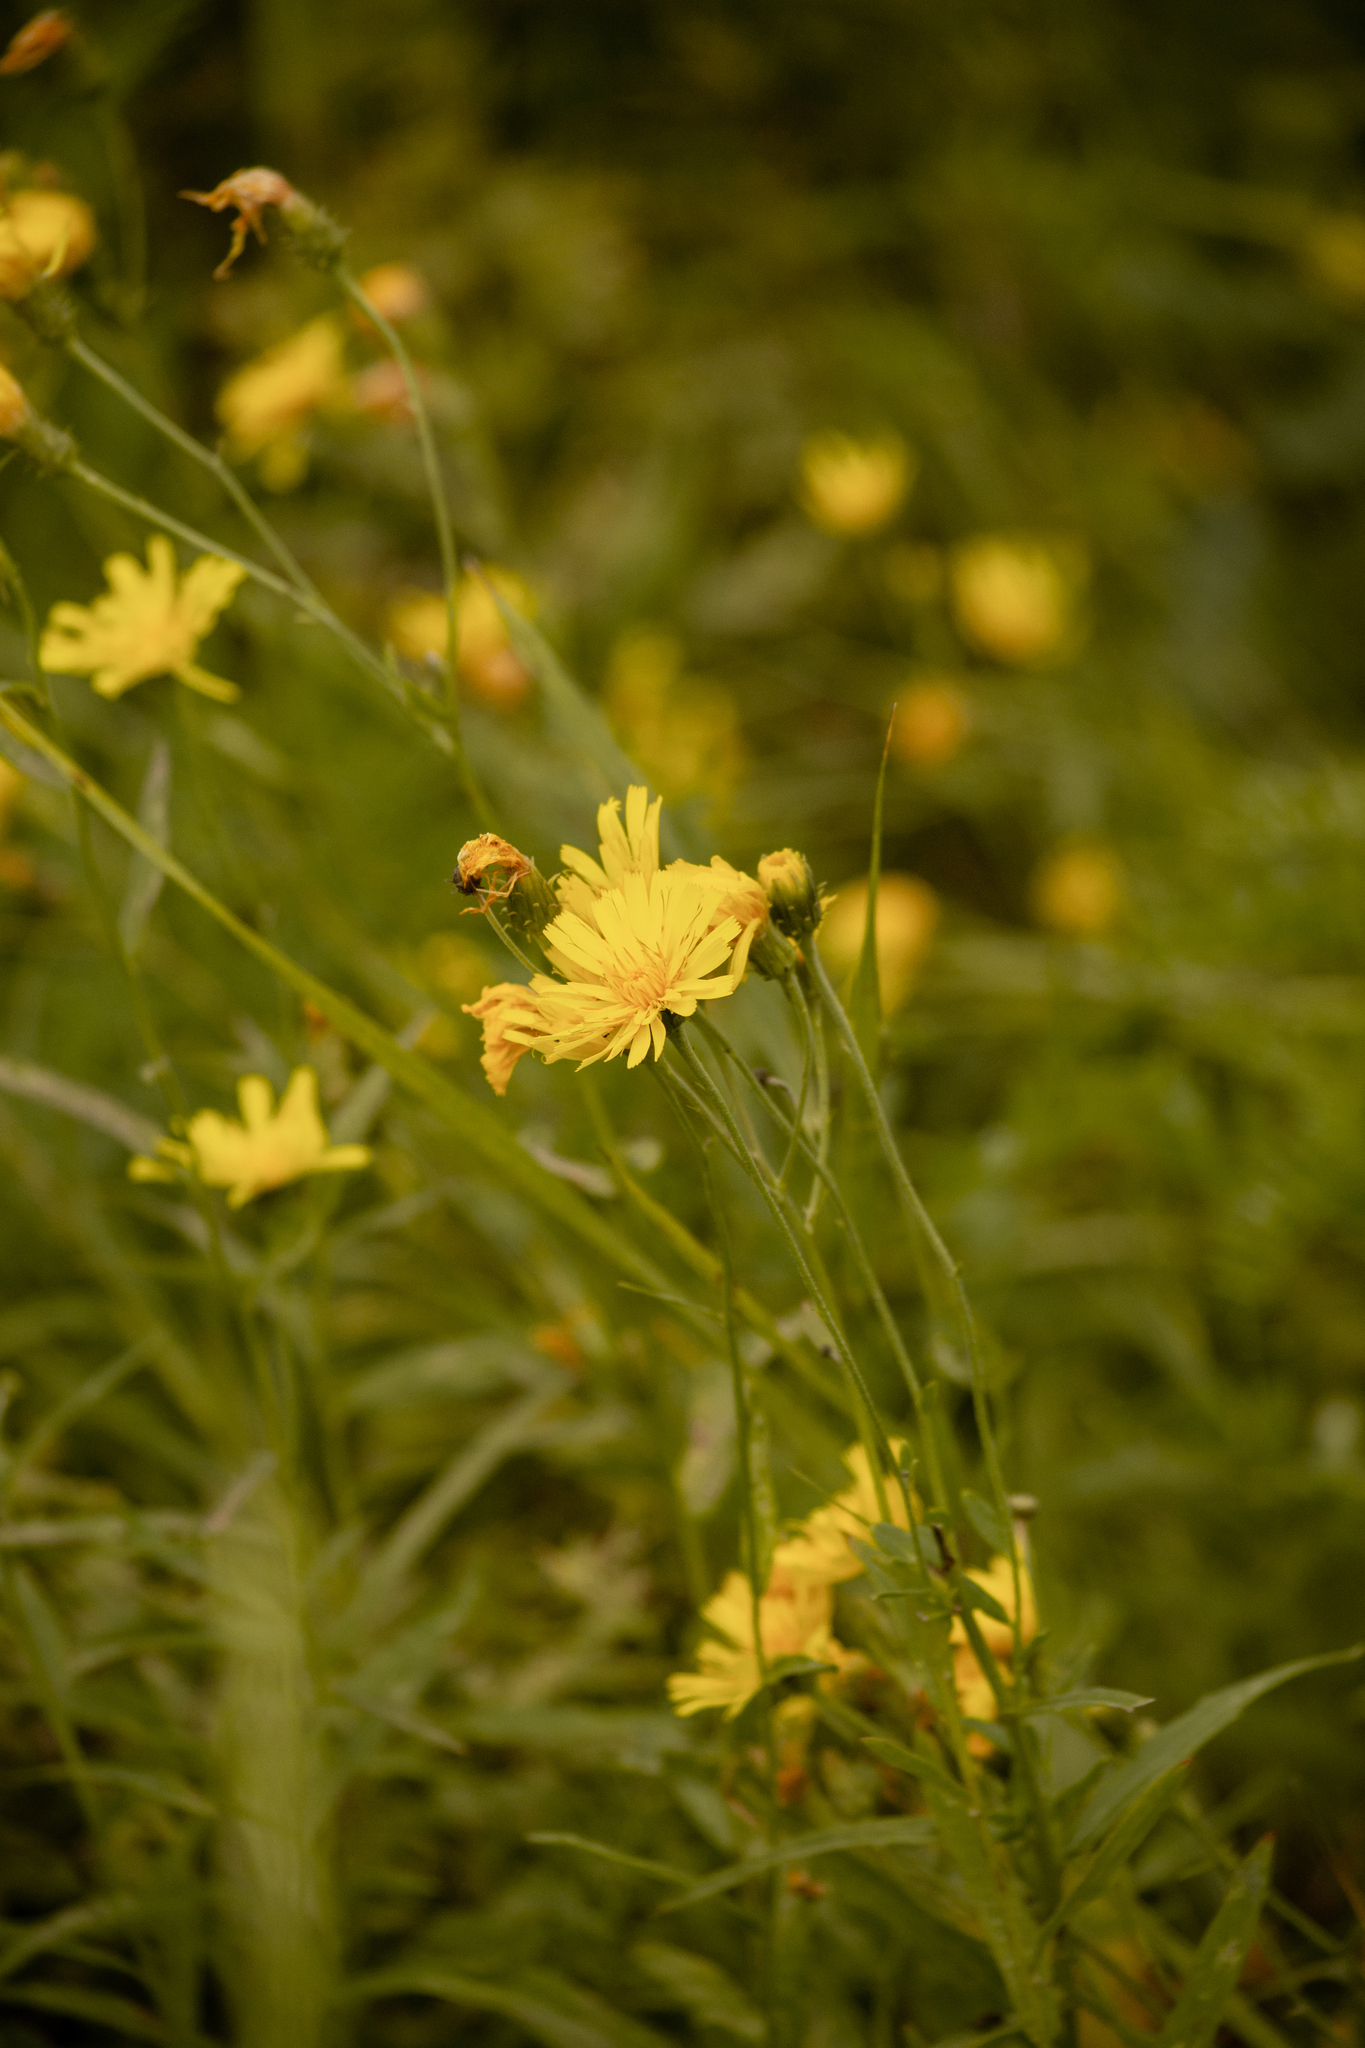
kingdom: Plantae
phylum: Tracheophyta
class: Magnoliopsida
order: Asterales
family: Asteraceae
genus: Hieracium
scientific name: Hieracium umbellatum
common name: Northern hawkweed
